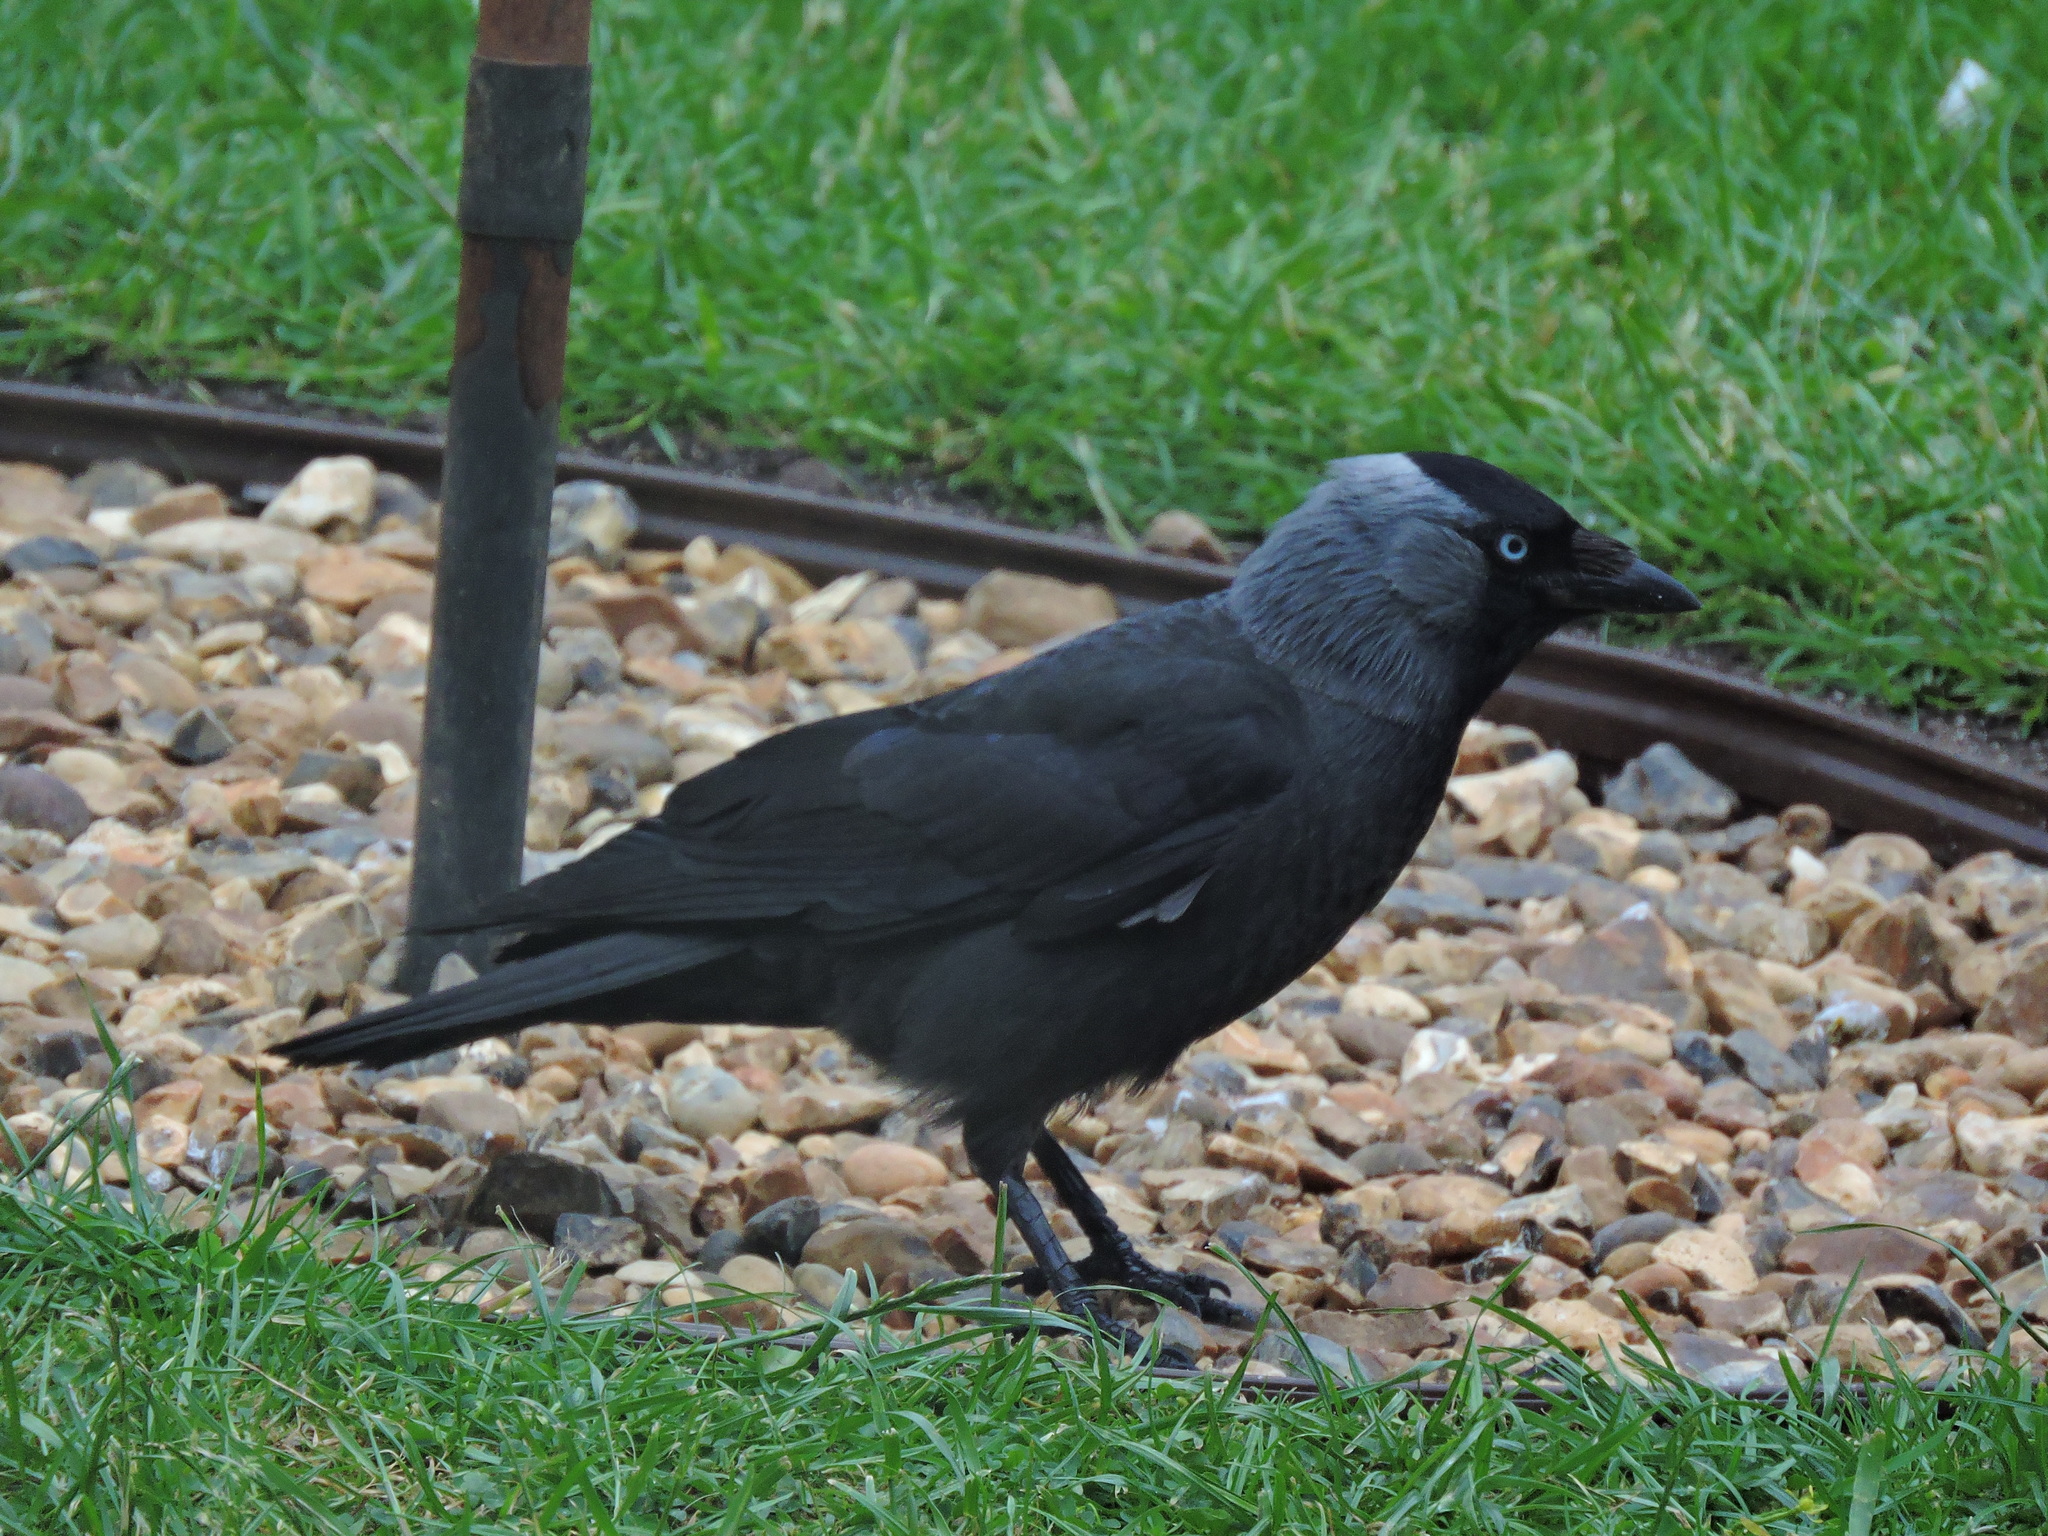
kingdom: Animalia
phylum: Chordata
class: Aves
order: Passeriformes
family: Corvidae
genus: Coloeus
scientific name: Coloeus monedula
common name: Western jackdaw
